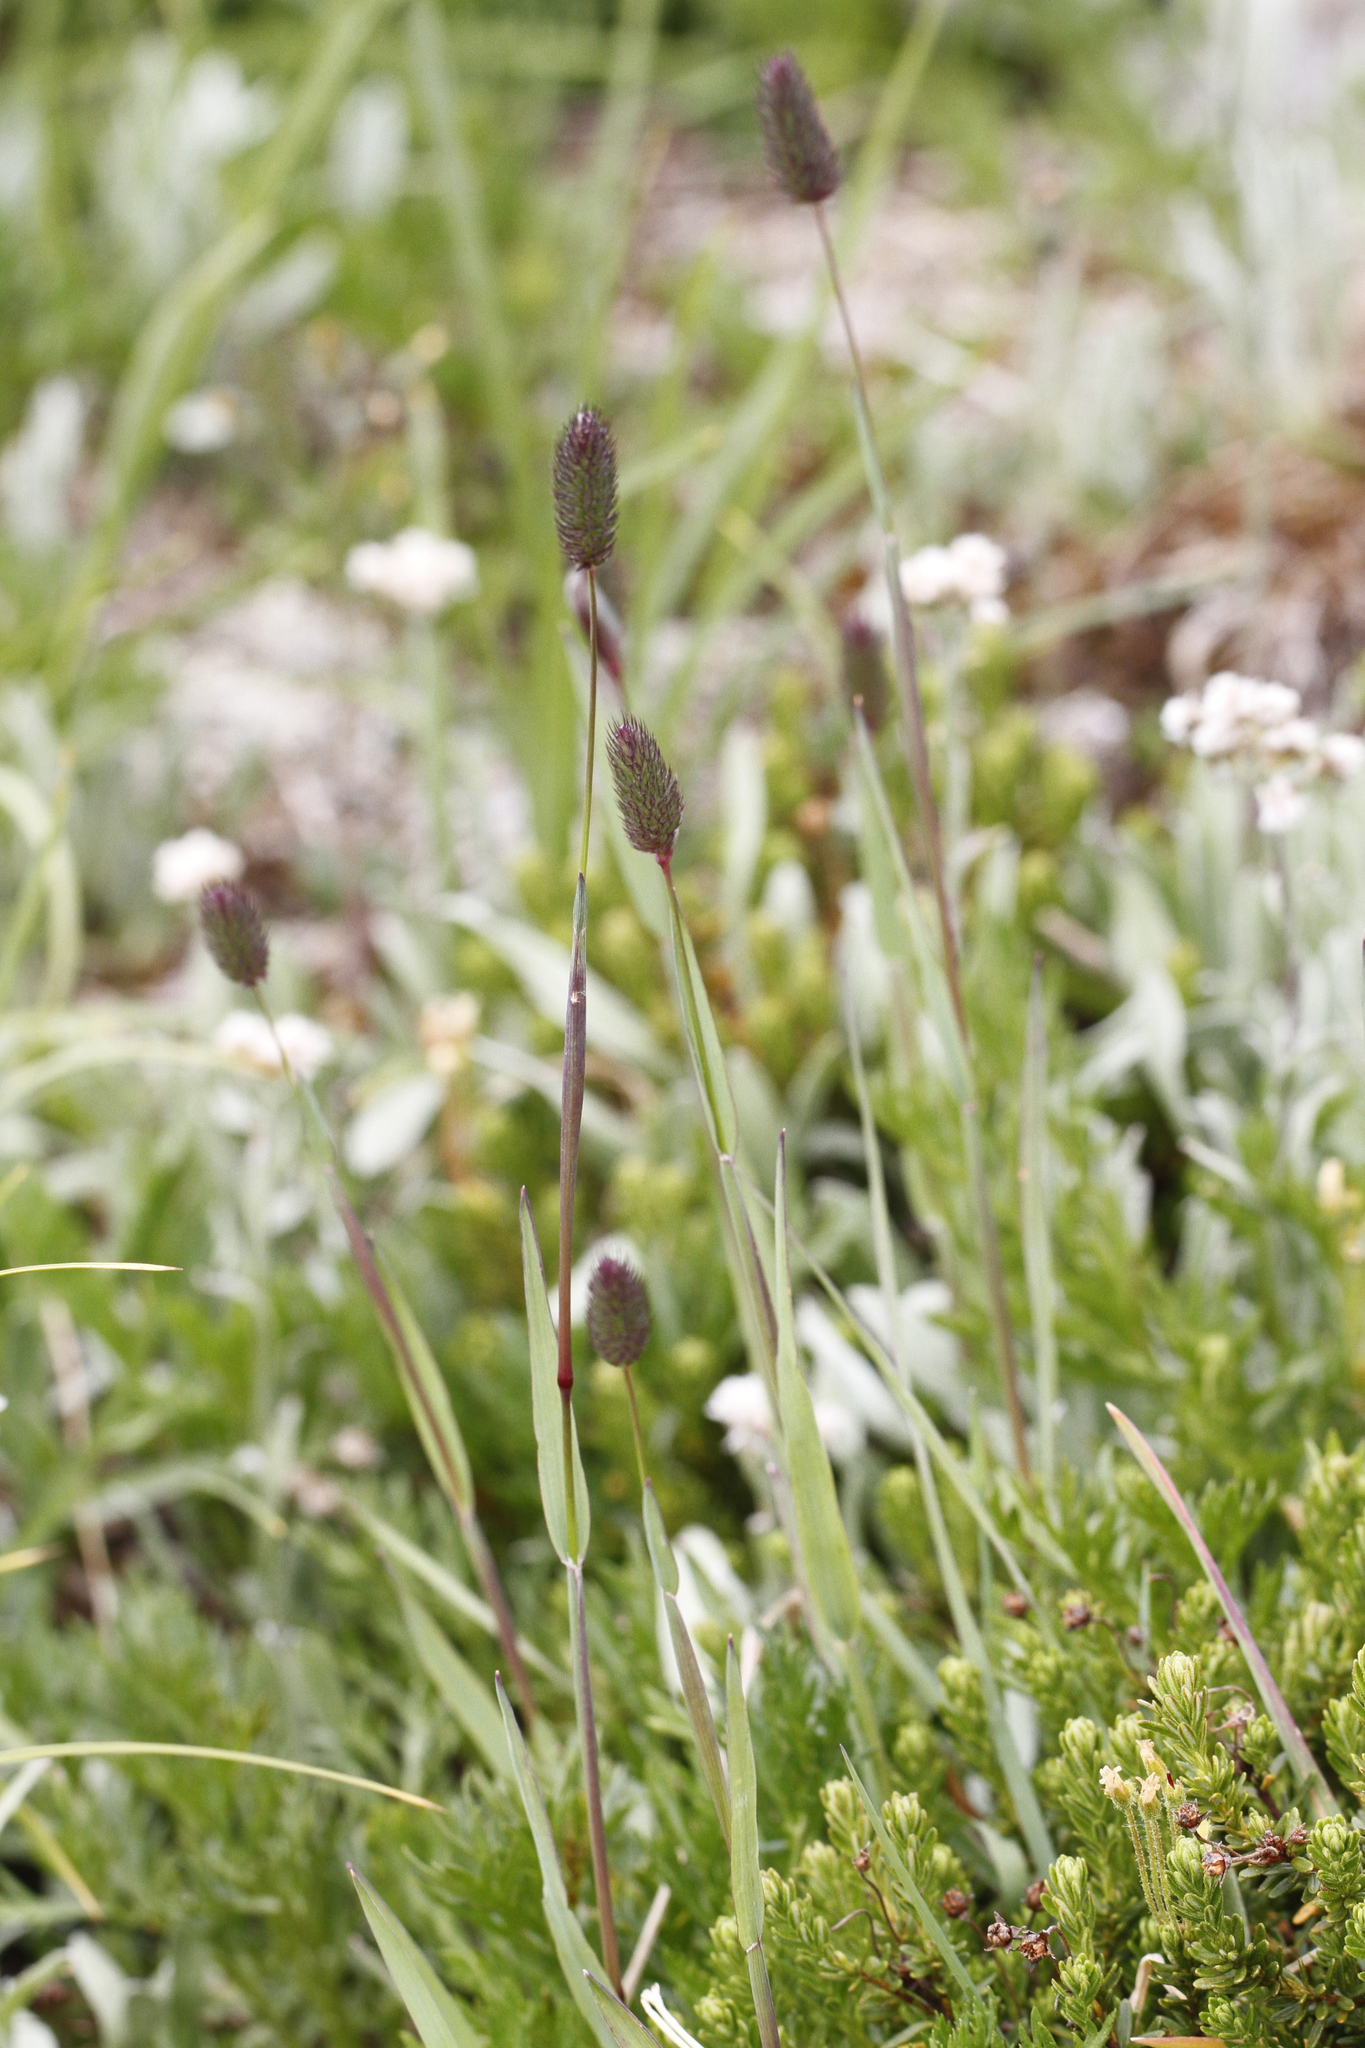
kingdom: Plantae
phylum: Tracheophyta
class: Liliopsida
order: Poales
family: Poaceae
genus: Phleum
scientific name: Phleum alpinum
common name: Alpine cat's-tail
